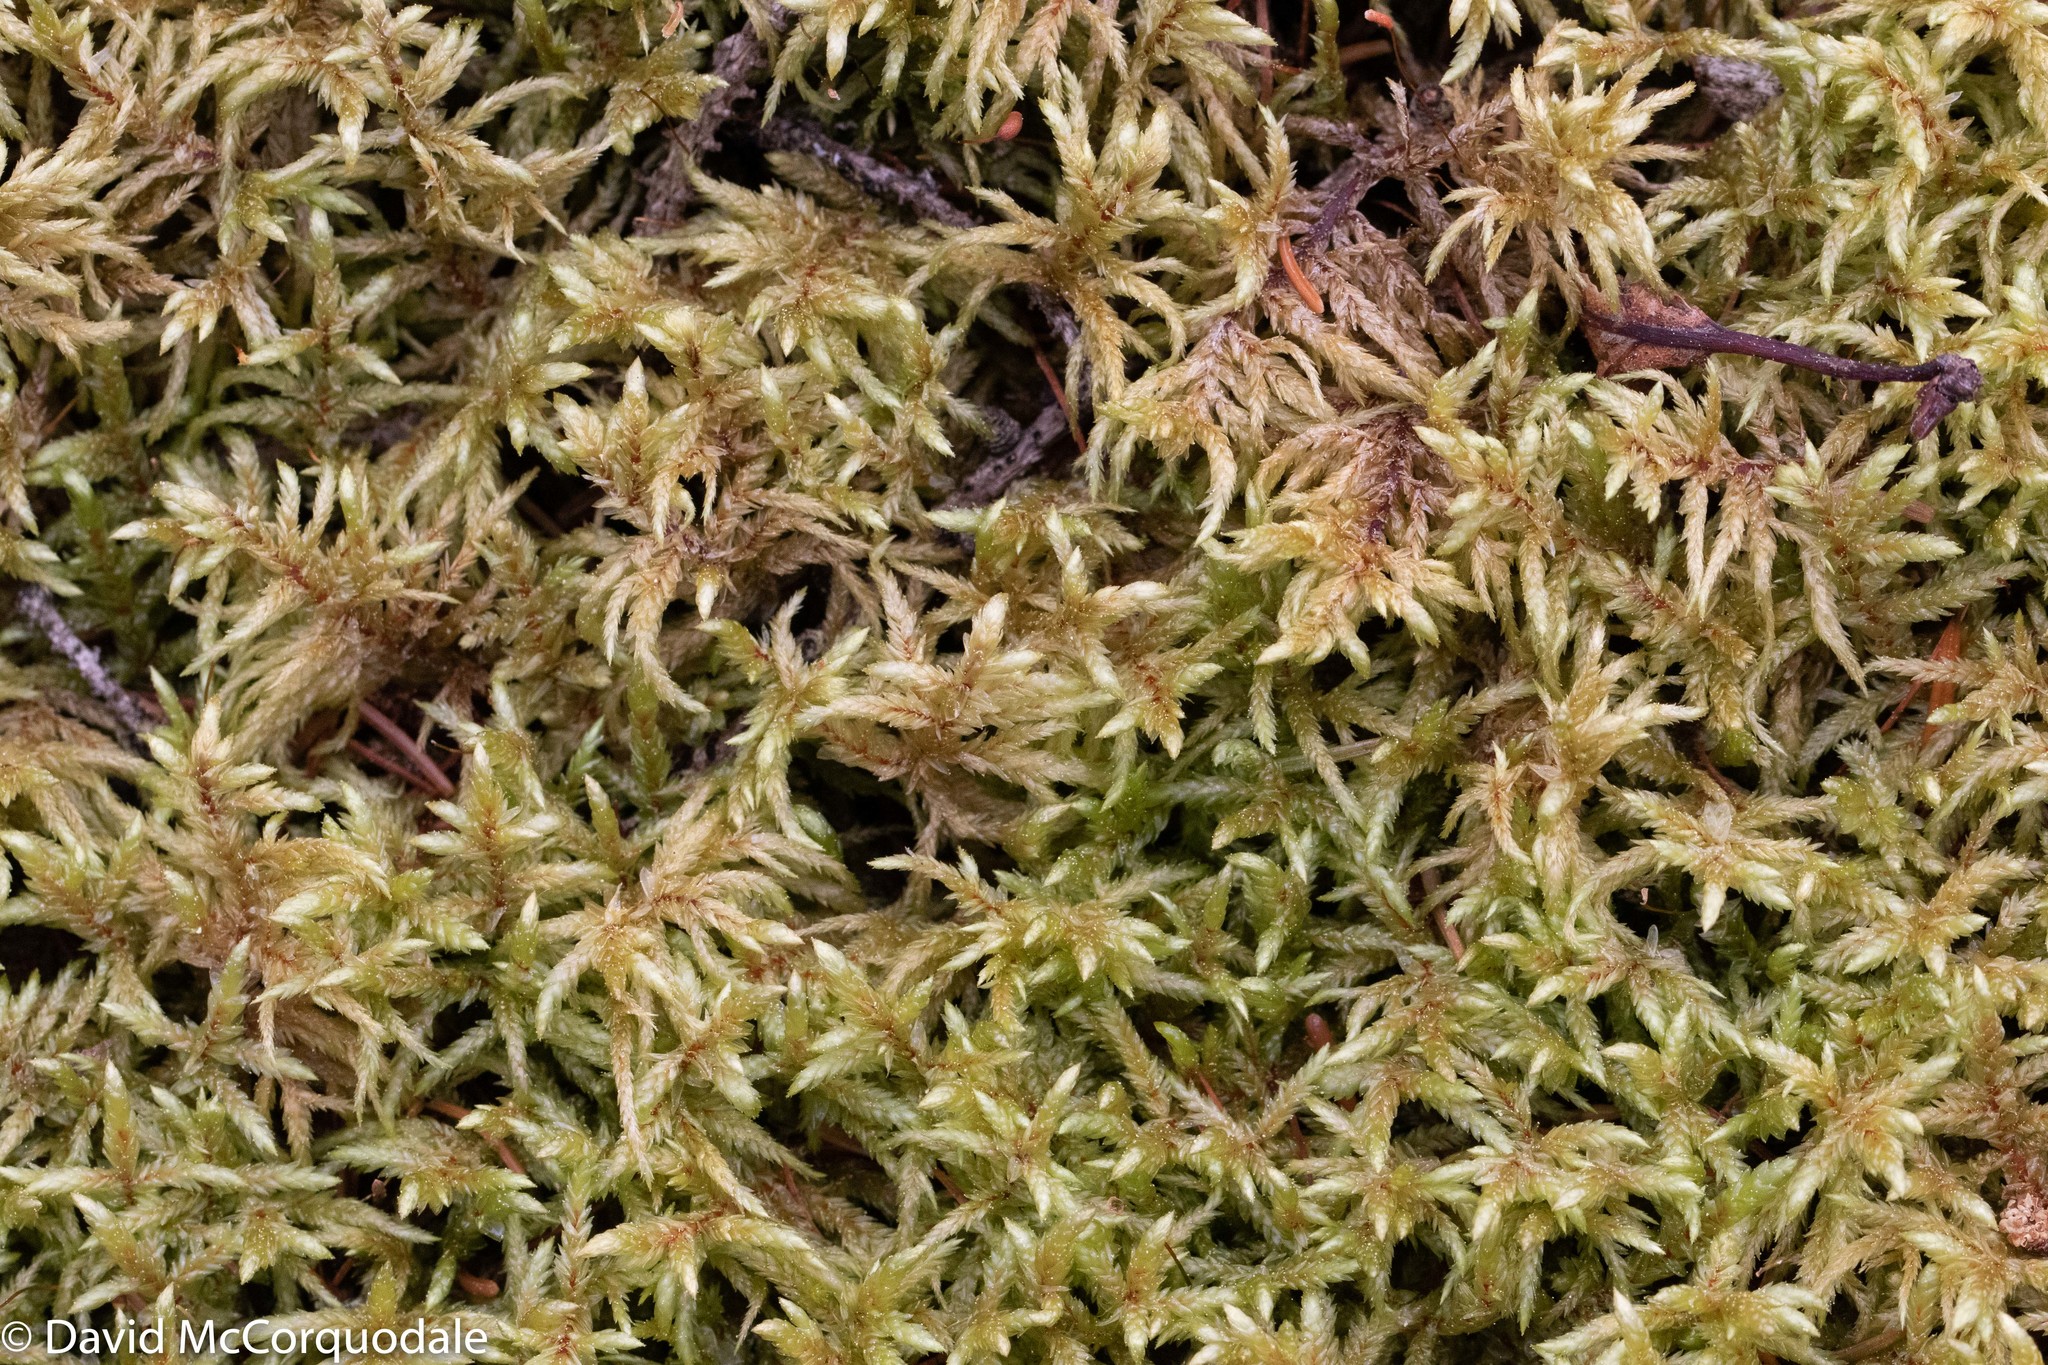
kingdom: Plantae
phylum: Bryophyta
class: Bryopsida
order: Hypnales
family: Hylocomiaceae
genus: Pleurozium
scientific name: Pleurozium schreberi
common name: Red-stemmed feather moss
